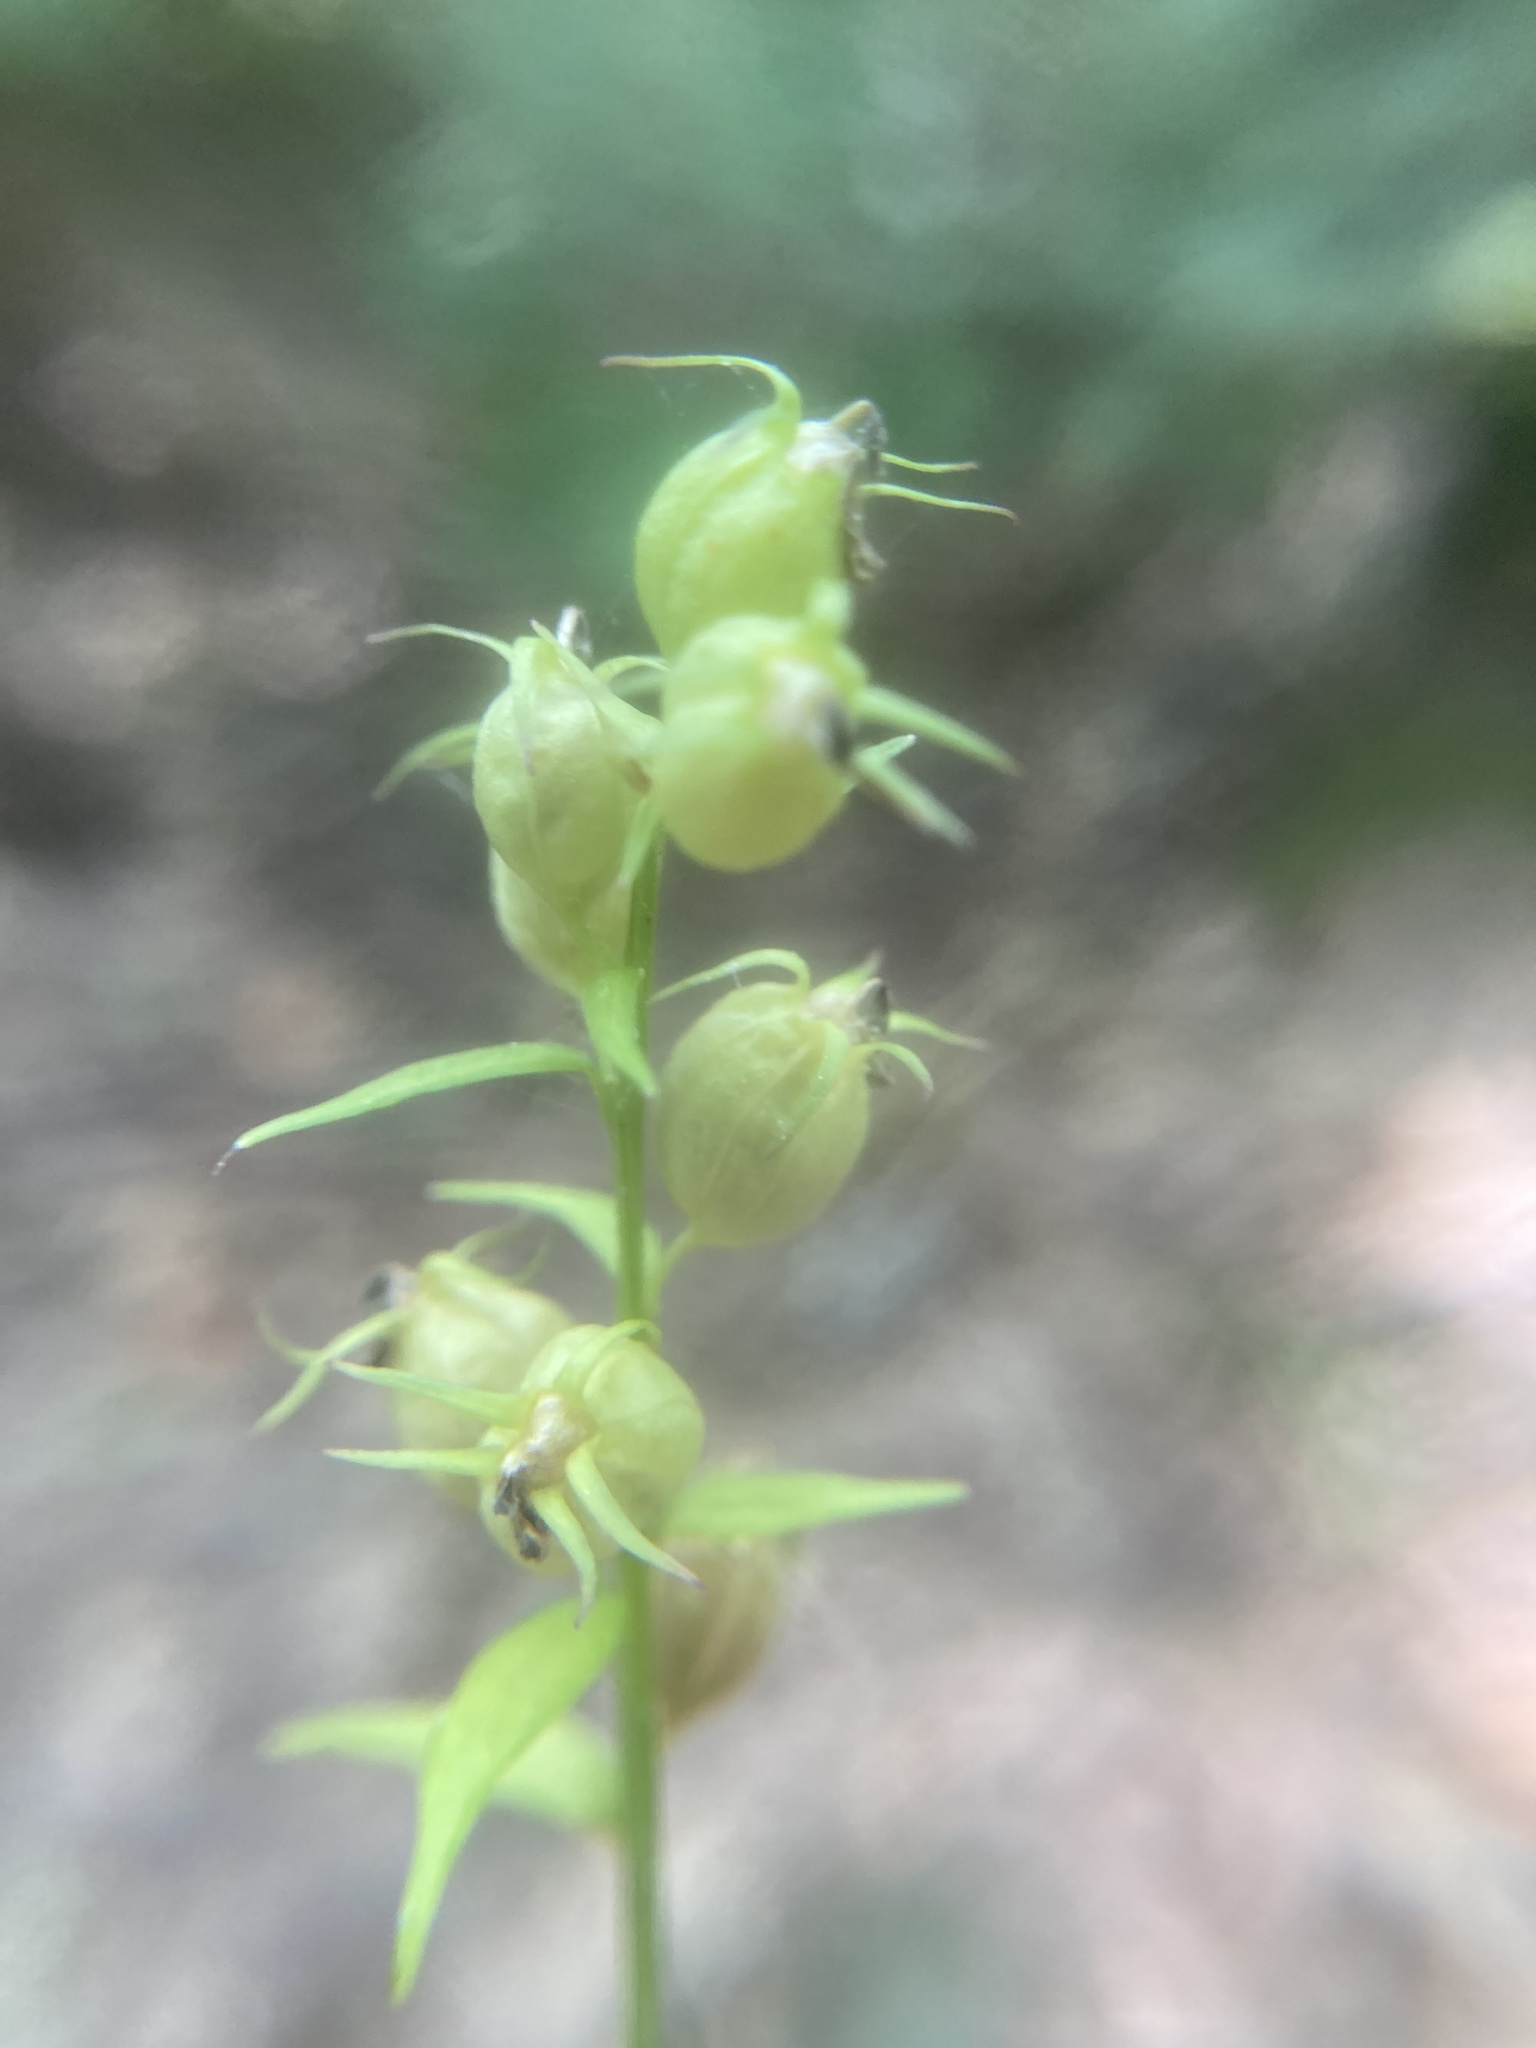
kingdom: Plantae
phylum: Tracheophyta
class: Magnoliopsida
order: Asterales
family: Campanulaceae
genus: Lobelia
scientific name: Lobelia inflata
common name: Indian tobacco
